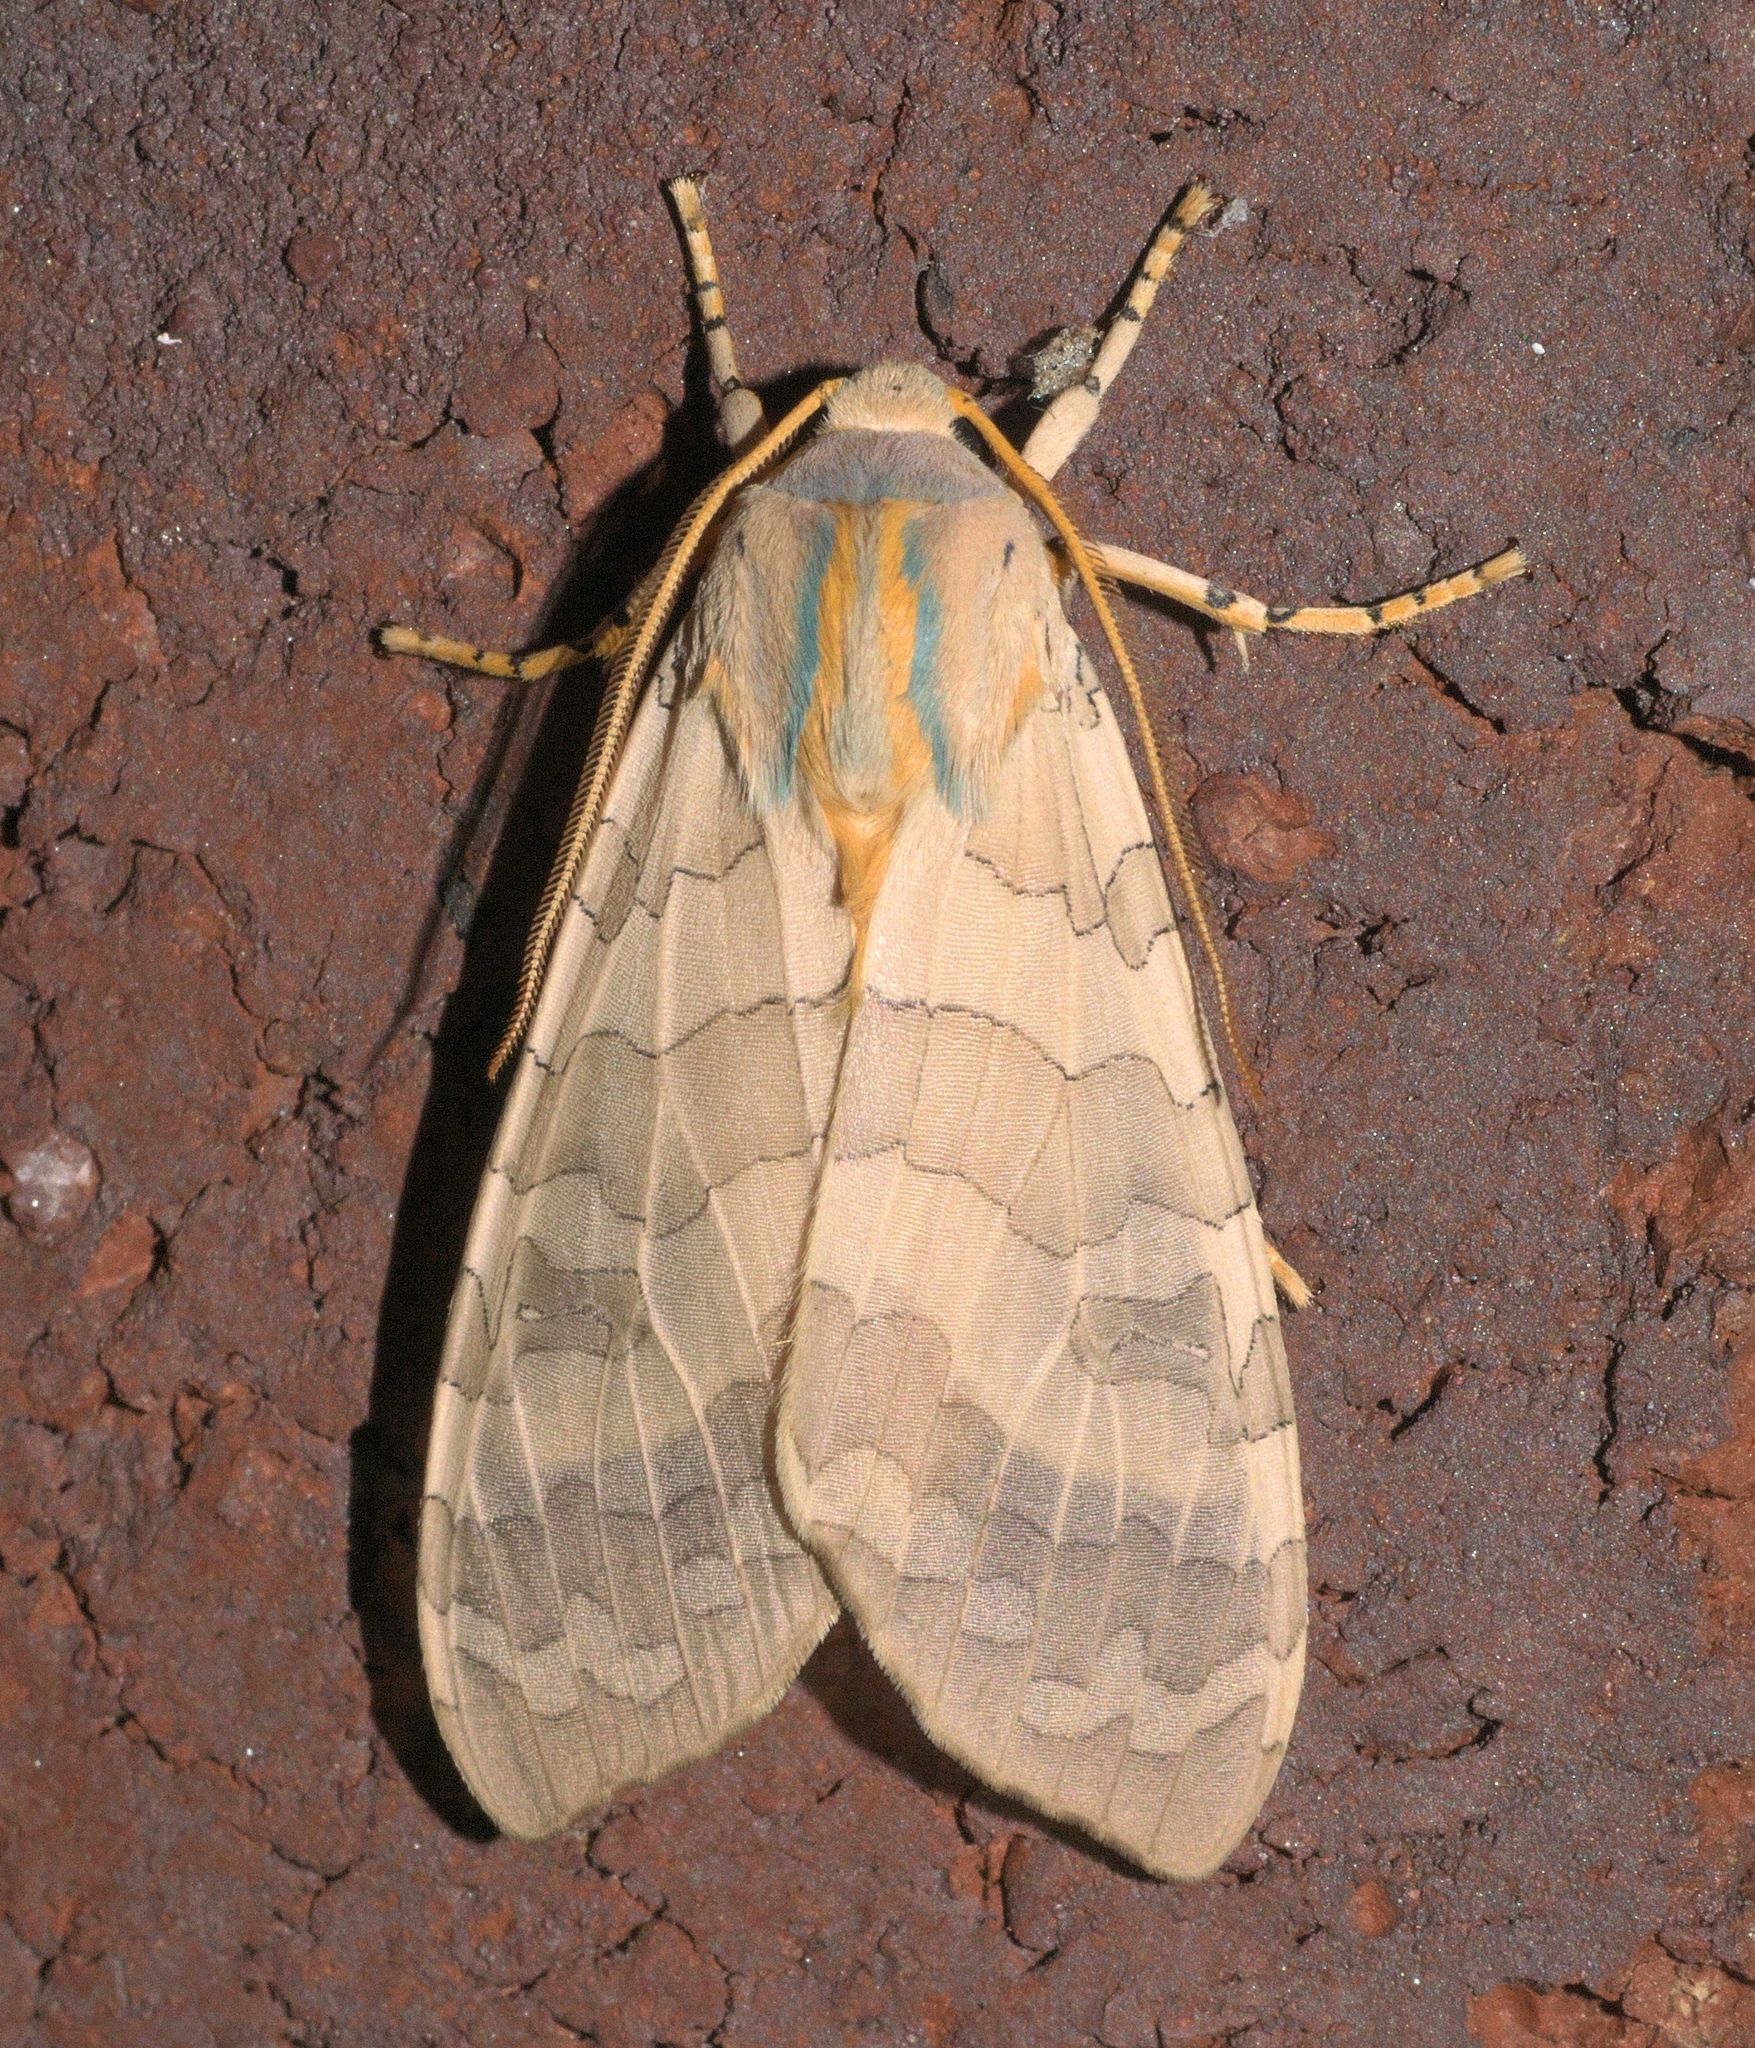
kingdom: Animalia
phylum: Arthropoda
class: Insecta
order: Lepidoptera
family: Erebidae
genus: Halysidota
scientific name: Halysidota
